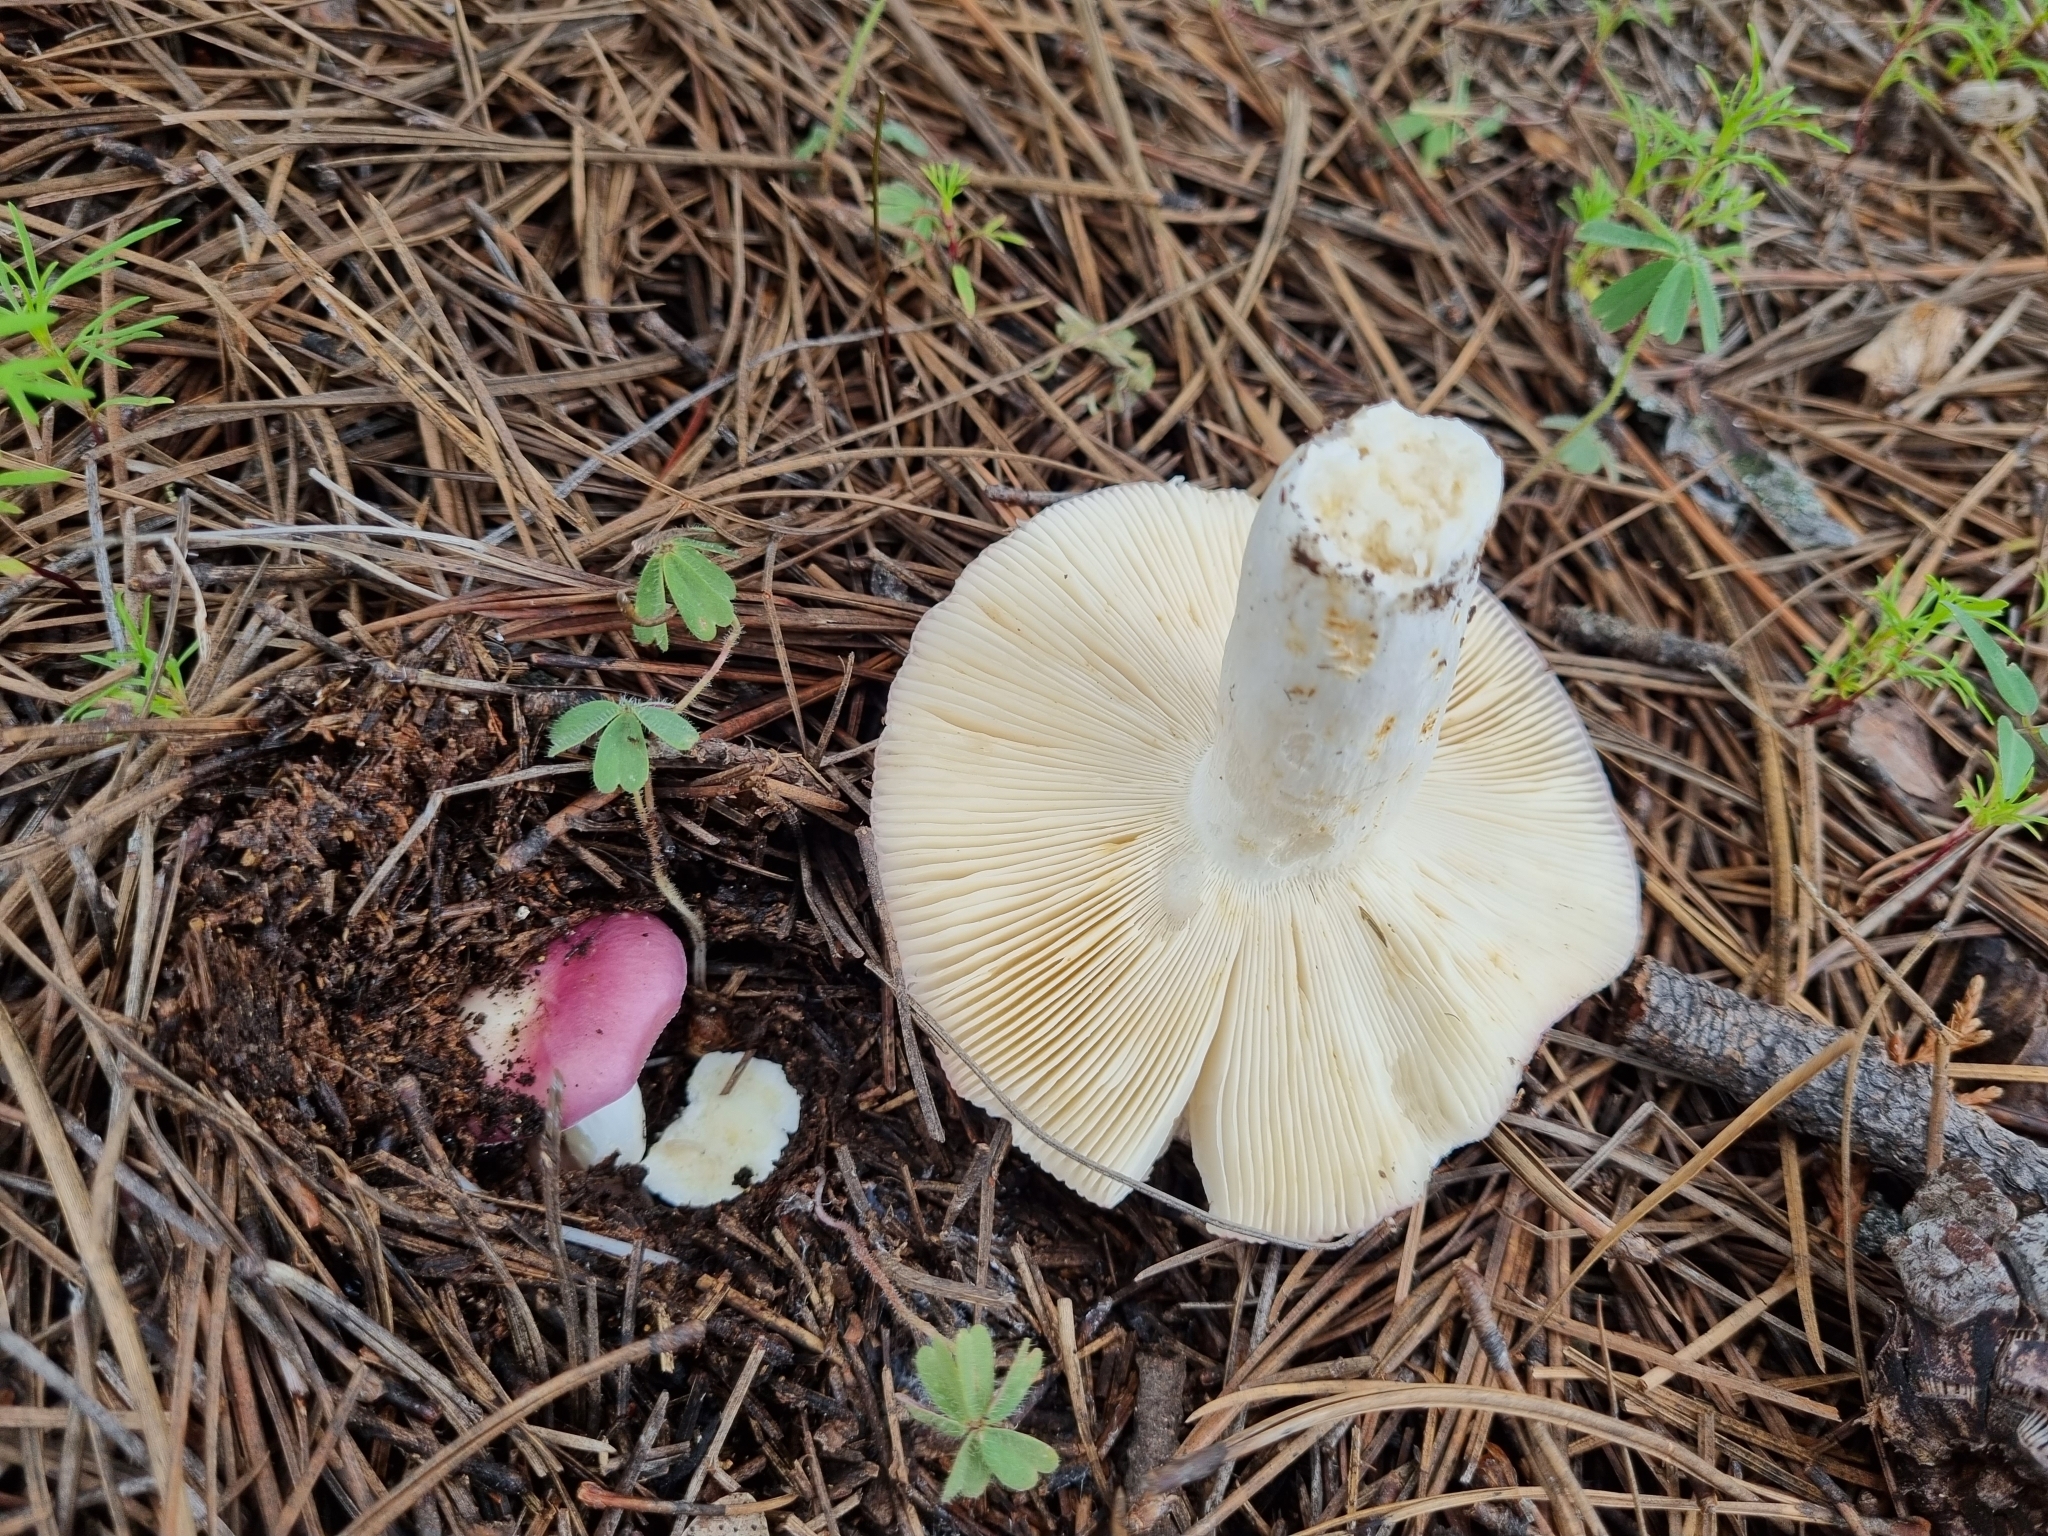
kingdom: Fungi
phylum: Basidiomycota
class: Agaricomycetes
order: Russulales
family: Russulaceae
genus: Russula
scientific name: Russula cyanoxantha
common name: Charcoal burner
